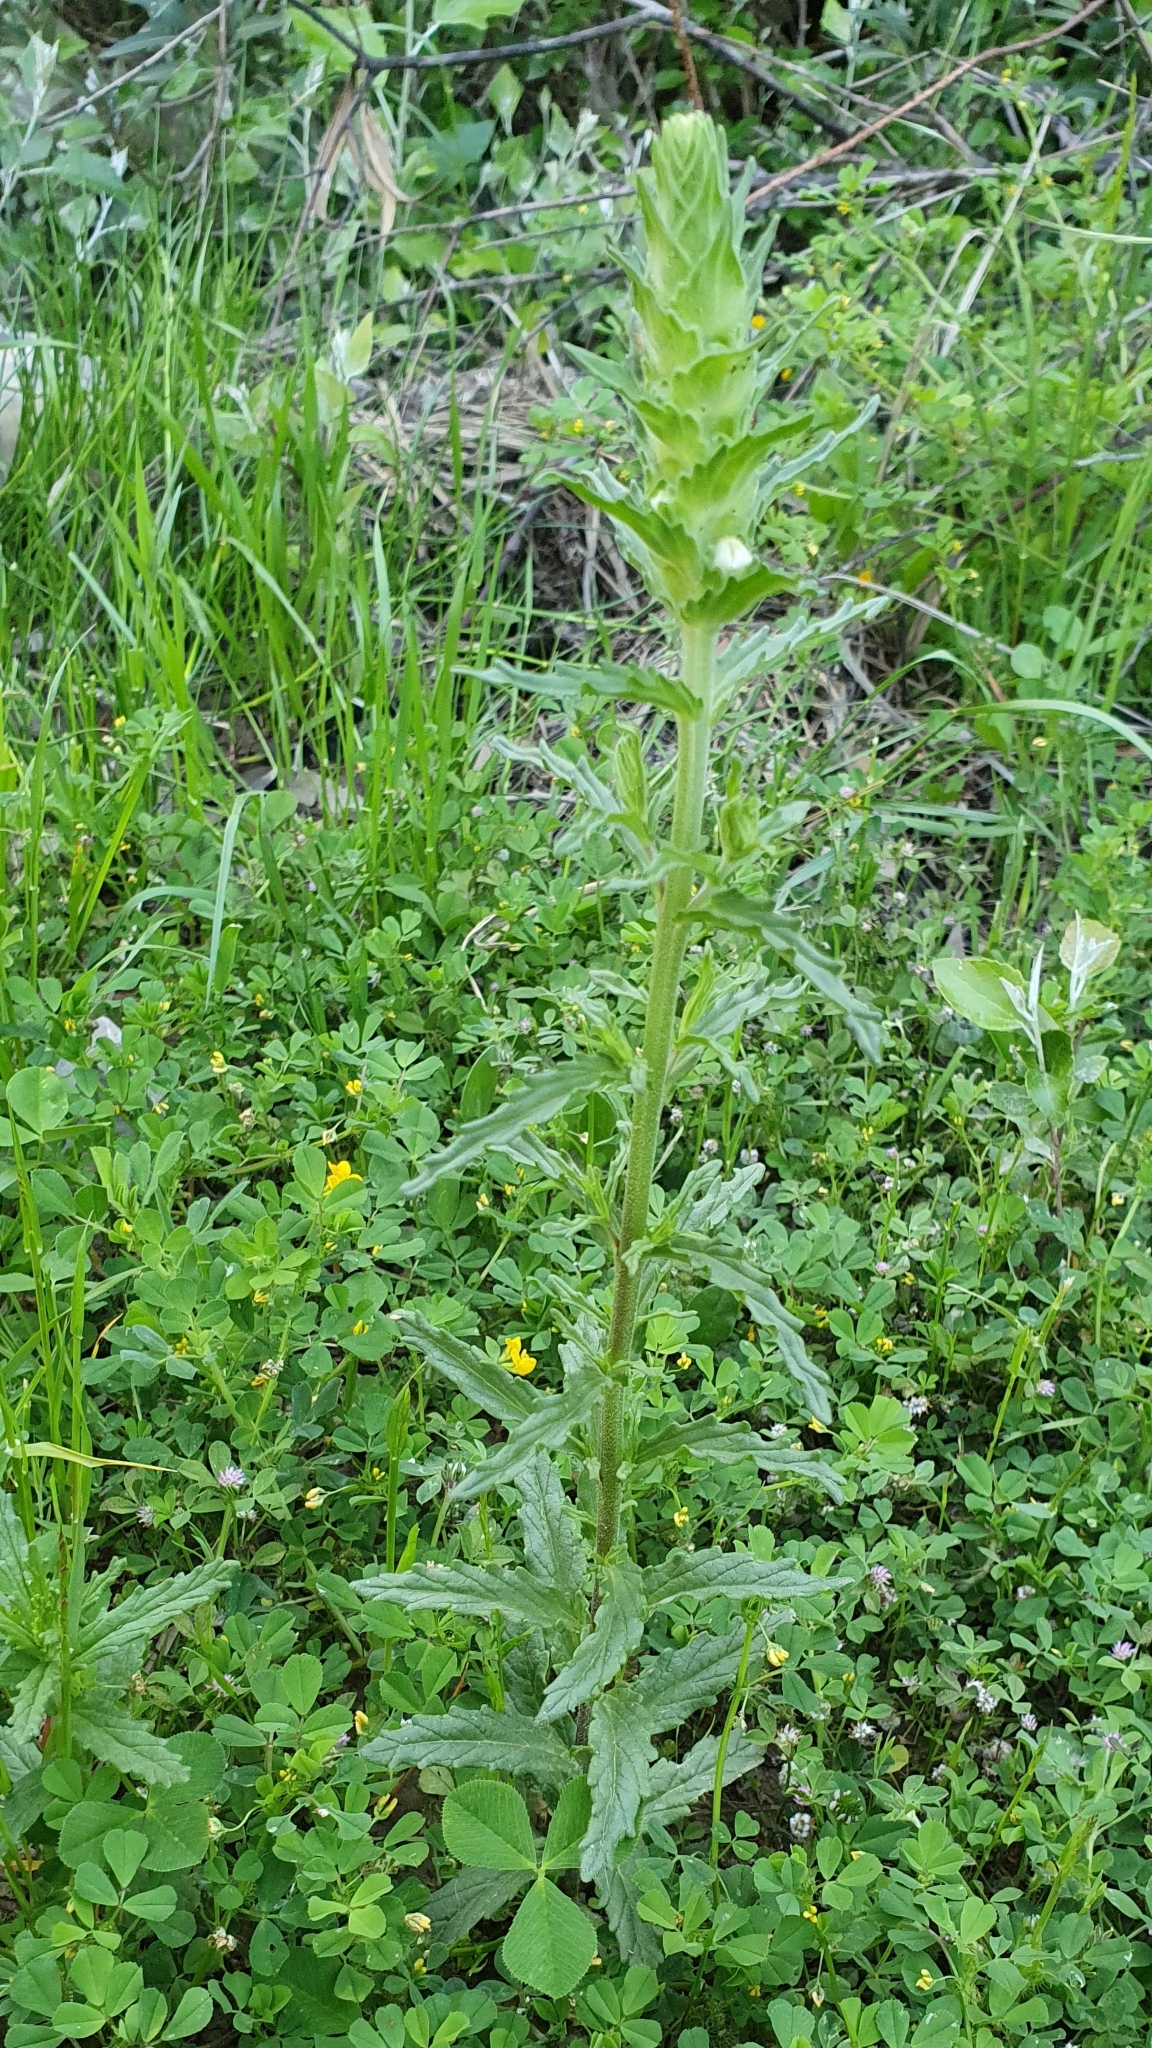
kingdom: Plantae
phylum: Tracheophyta
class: Magnoliopsida
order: Lamiales
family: Orobanchaceae
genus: Bellardia
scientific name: Bellardia trixago
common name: Mediterranean lineseed
